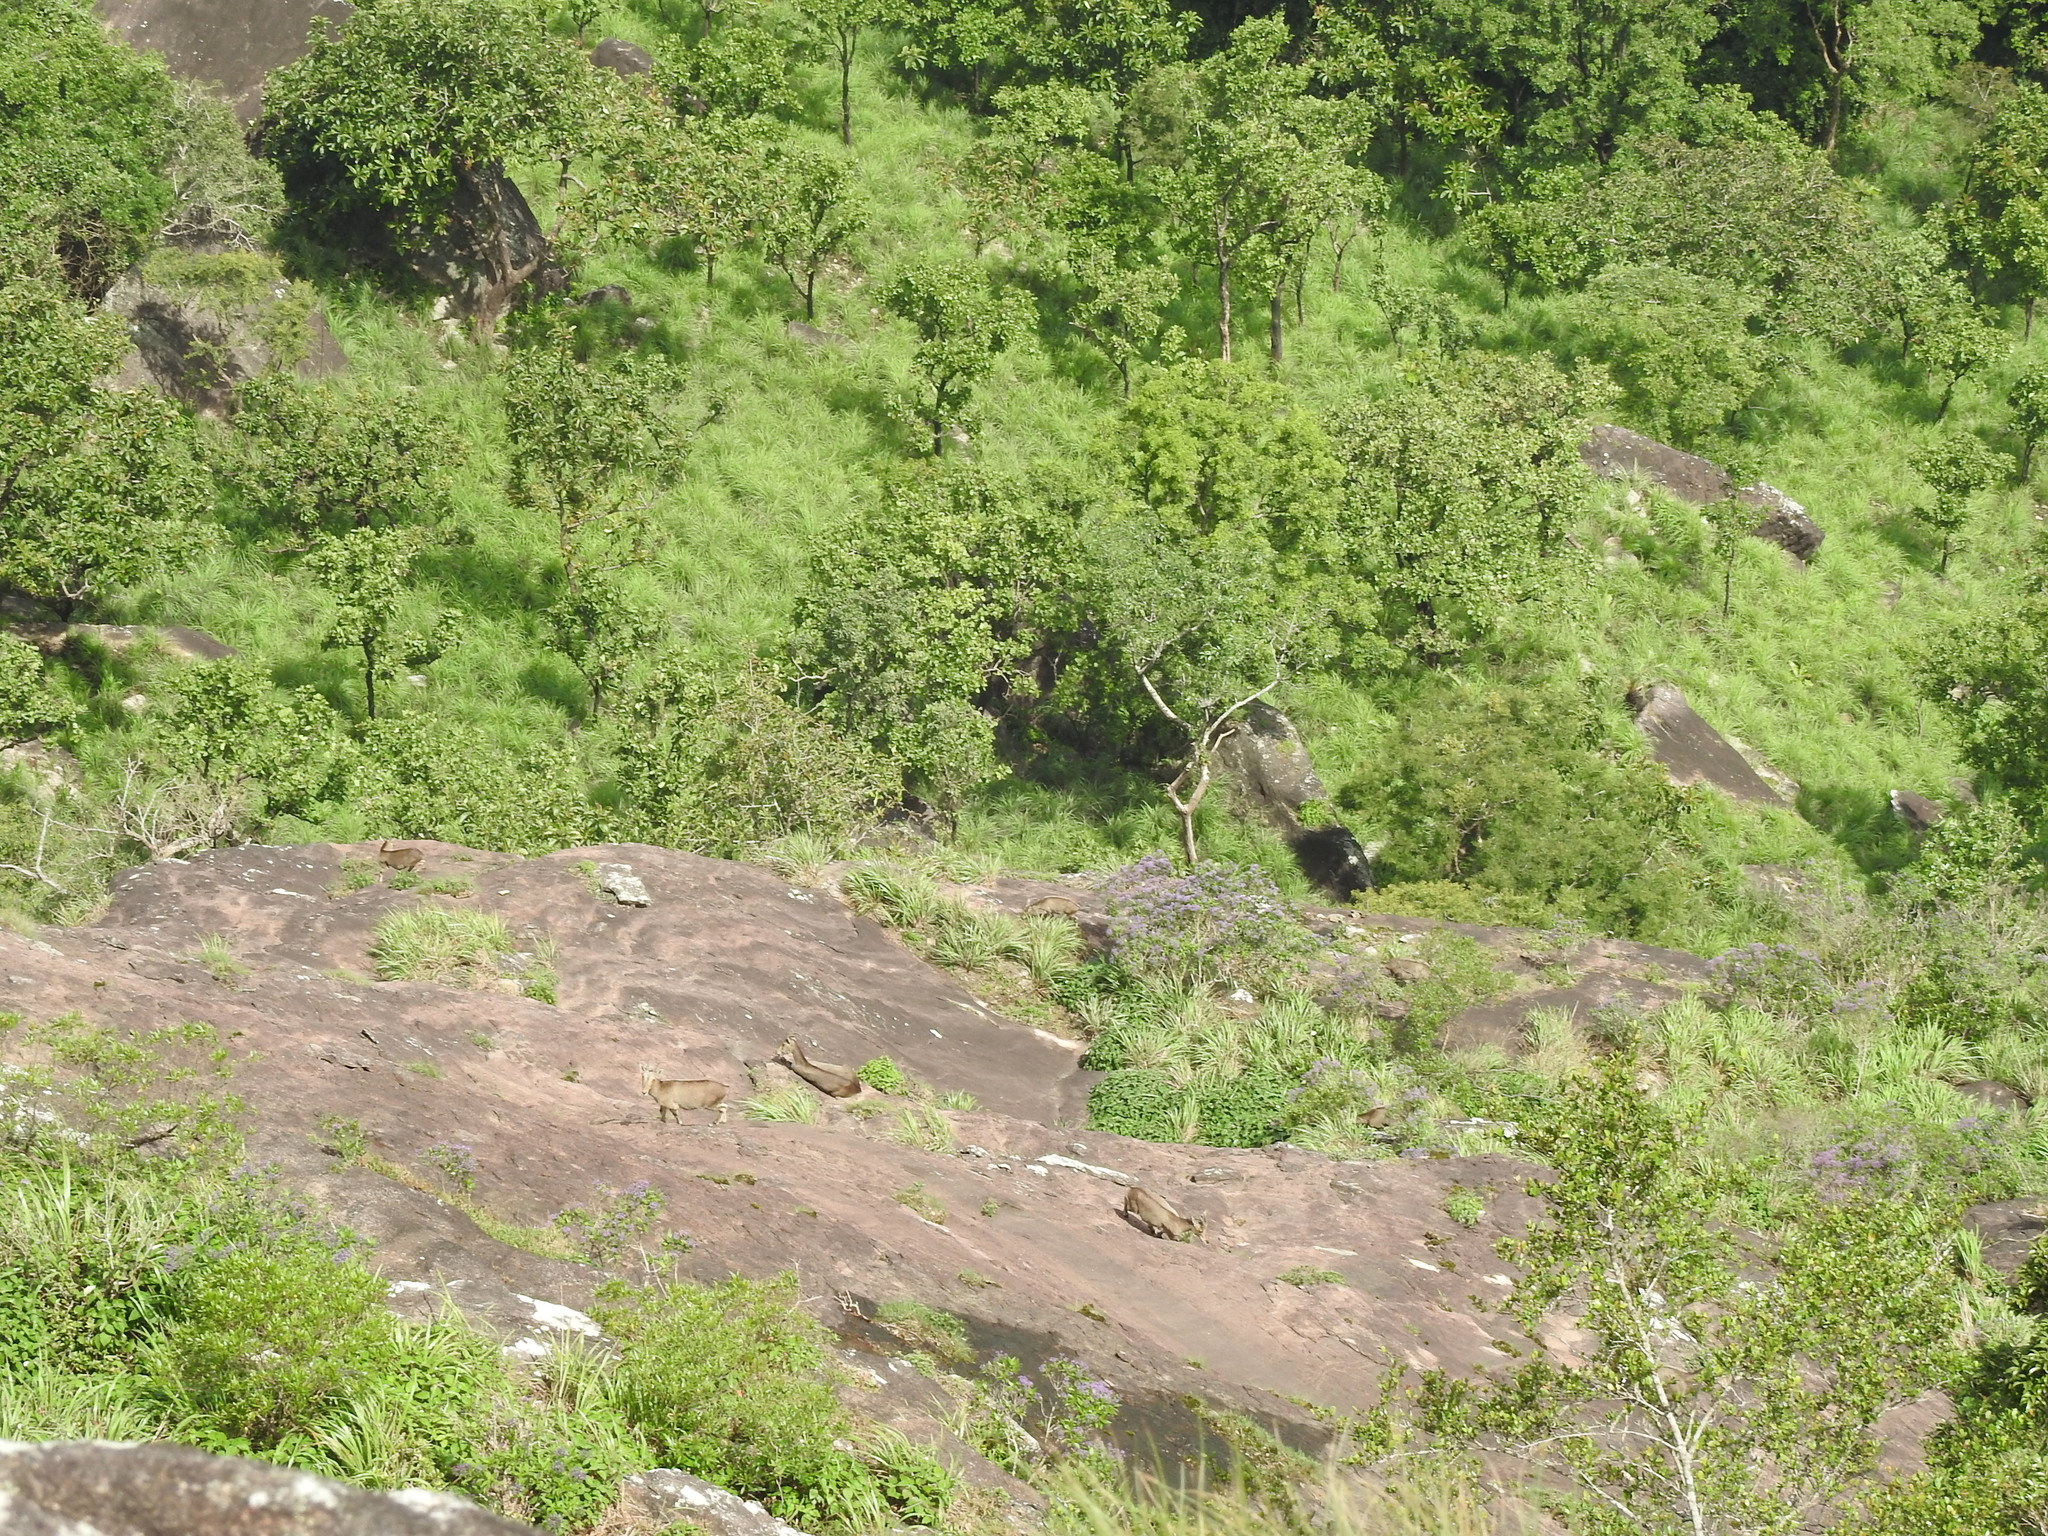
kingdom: Animalia
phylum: Chordata
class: Mammalia
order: Artiodactyla
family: Bovidae
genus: Hemitragus
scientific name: Hemitragus hylocrius
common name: Nilgiri tahr
